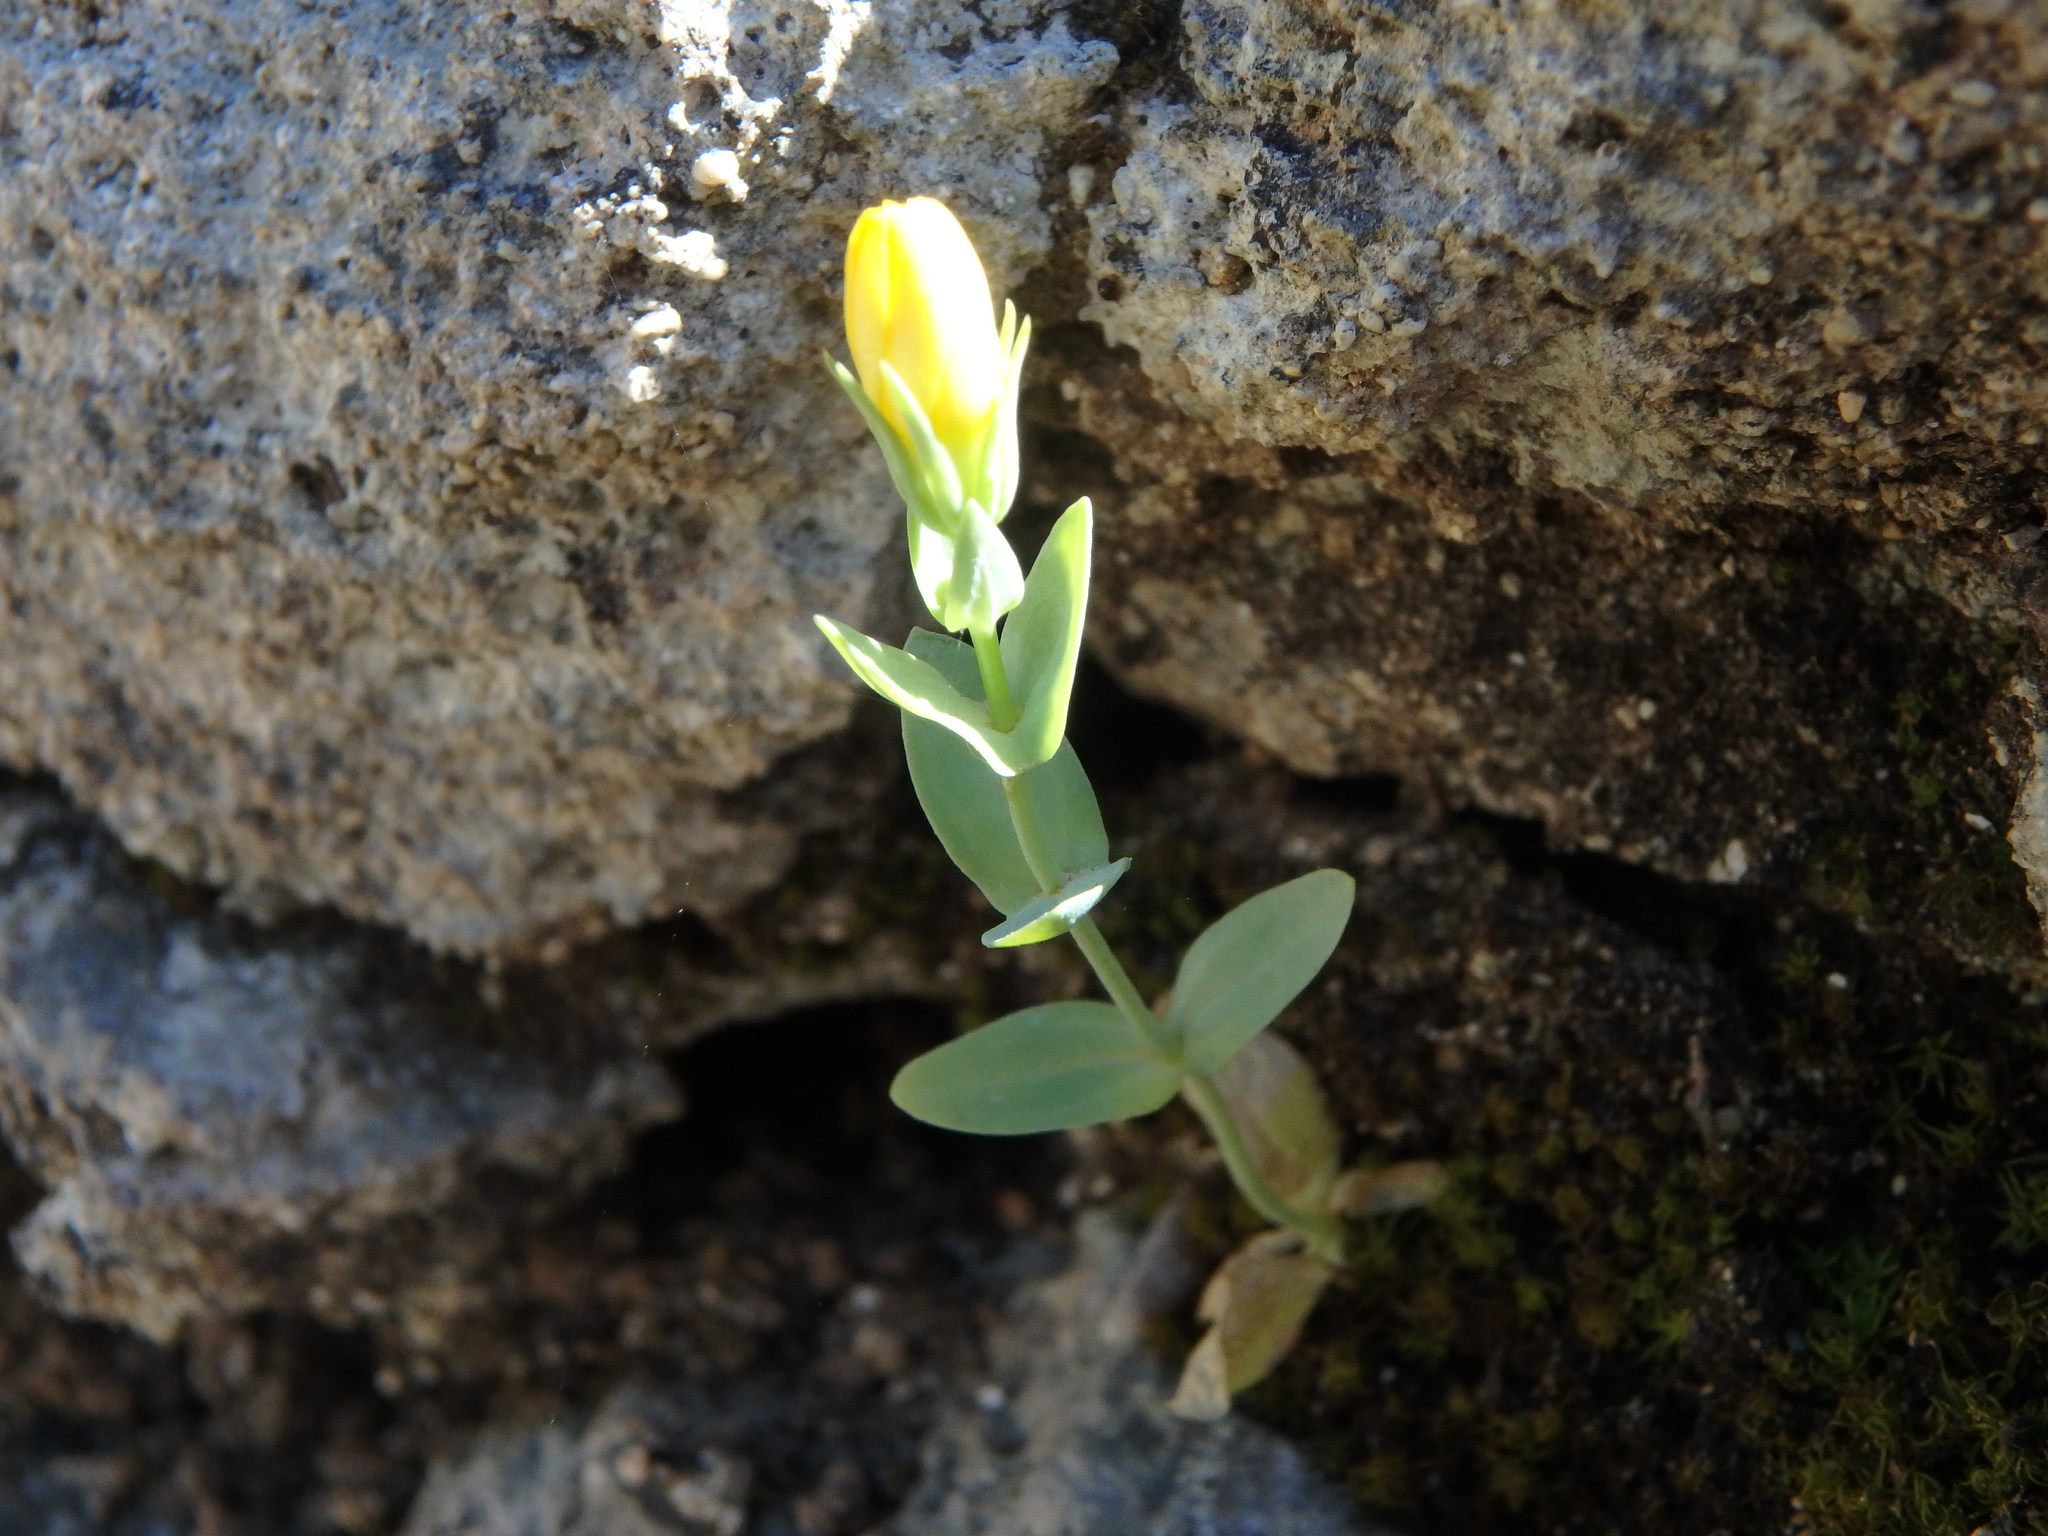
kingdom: Plantae
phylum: Tracheophyta
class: Magnoliopsida
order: Gentianales
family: Gentianaceae
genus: Blackstonia
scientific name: Blackstonia perfoliata
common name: Yellow-wort
